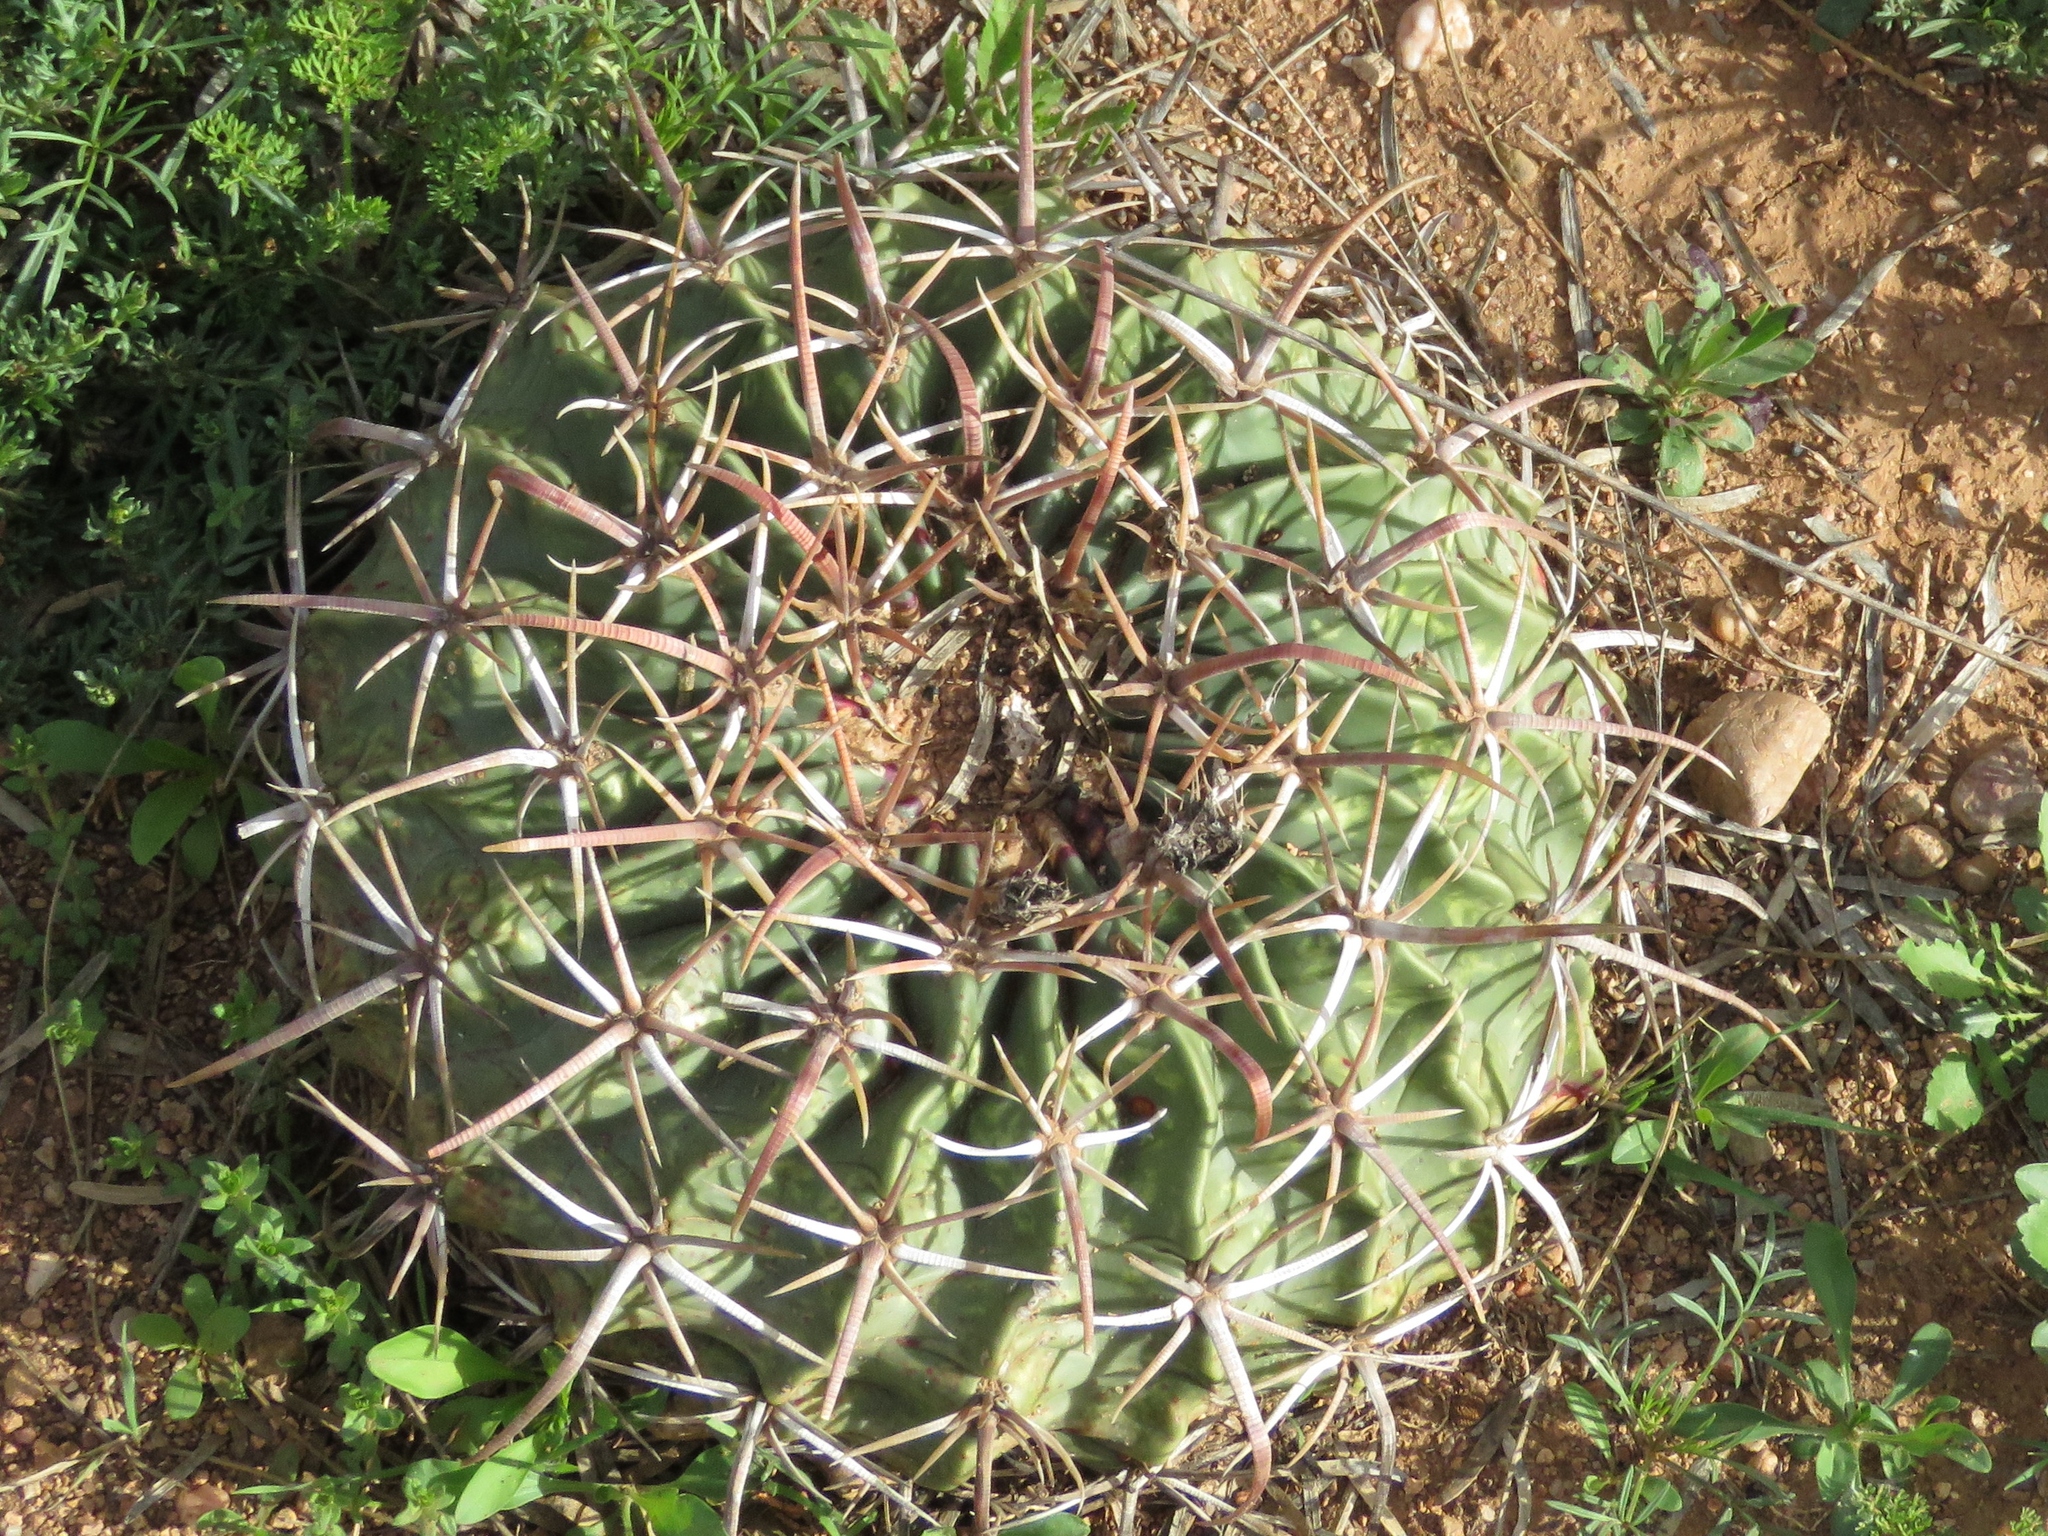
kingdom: Plantae
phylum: Tracheophyta
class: Magnoliopsida
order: Caryophyllales
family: Cactaceae
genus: Echinocactus
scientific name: Echinocactus texensis
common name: Devil's pincushion
